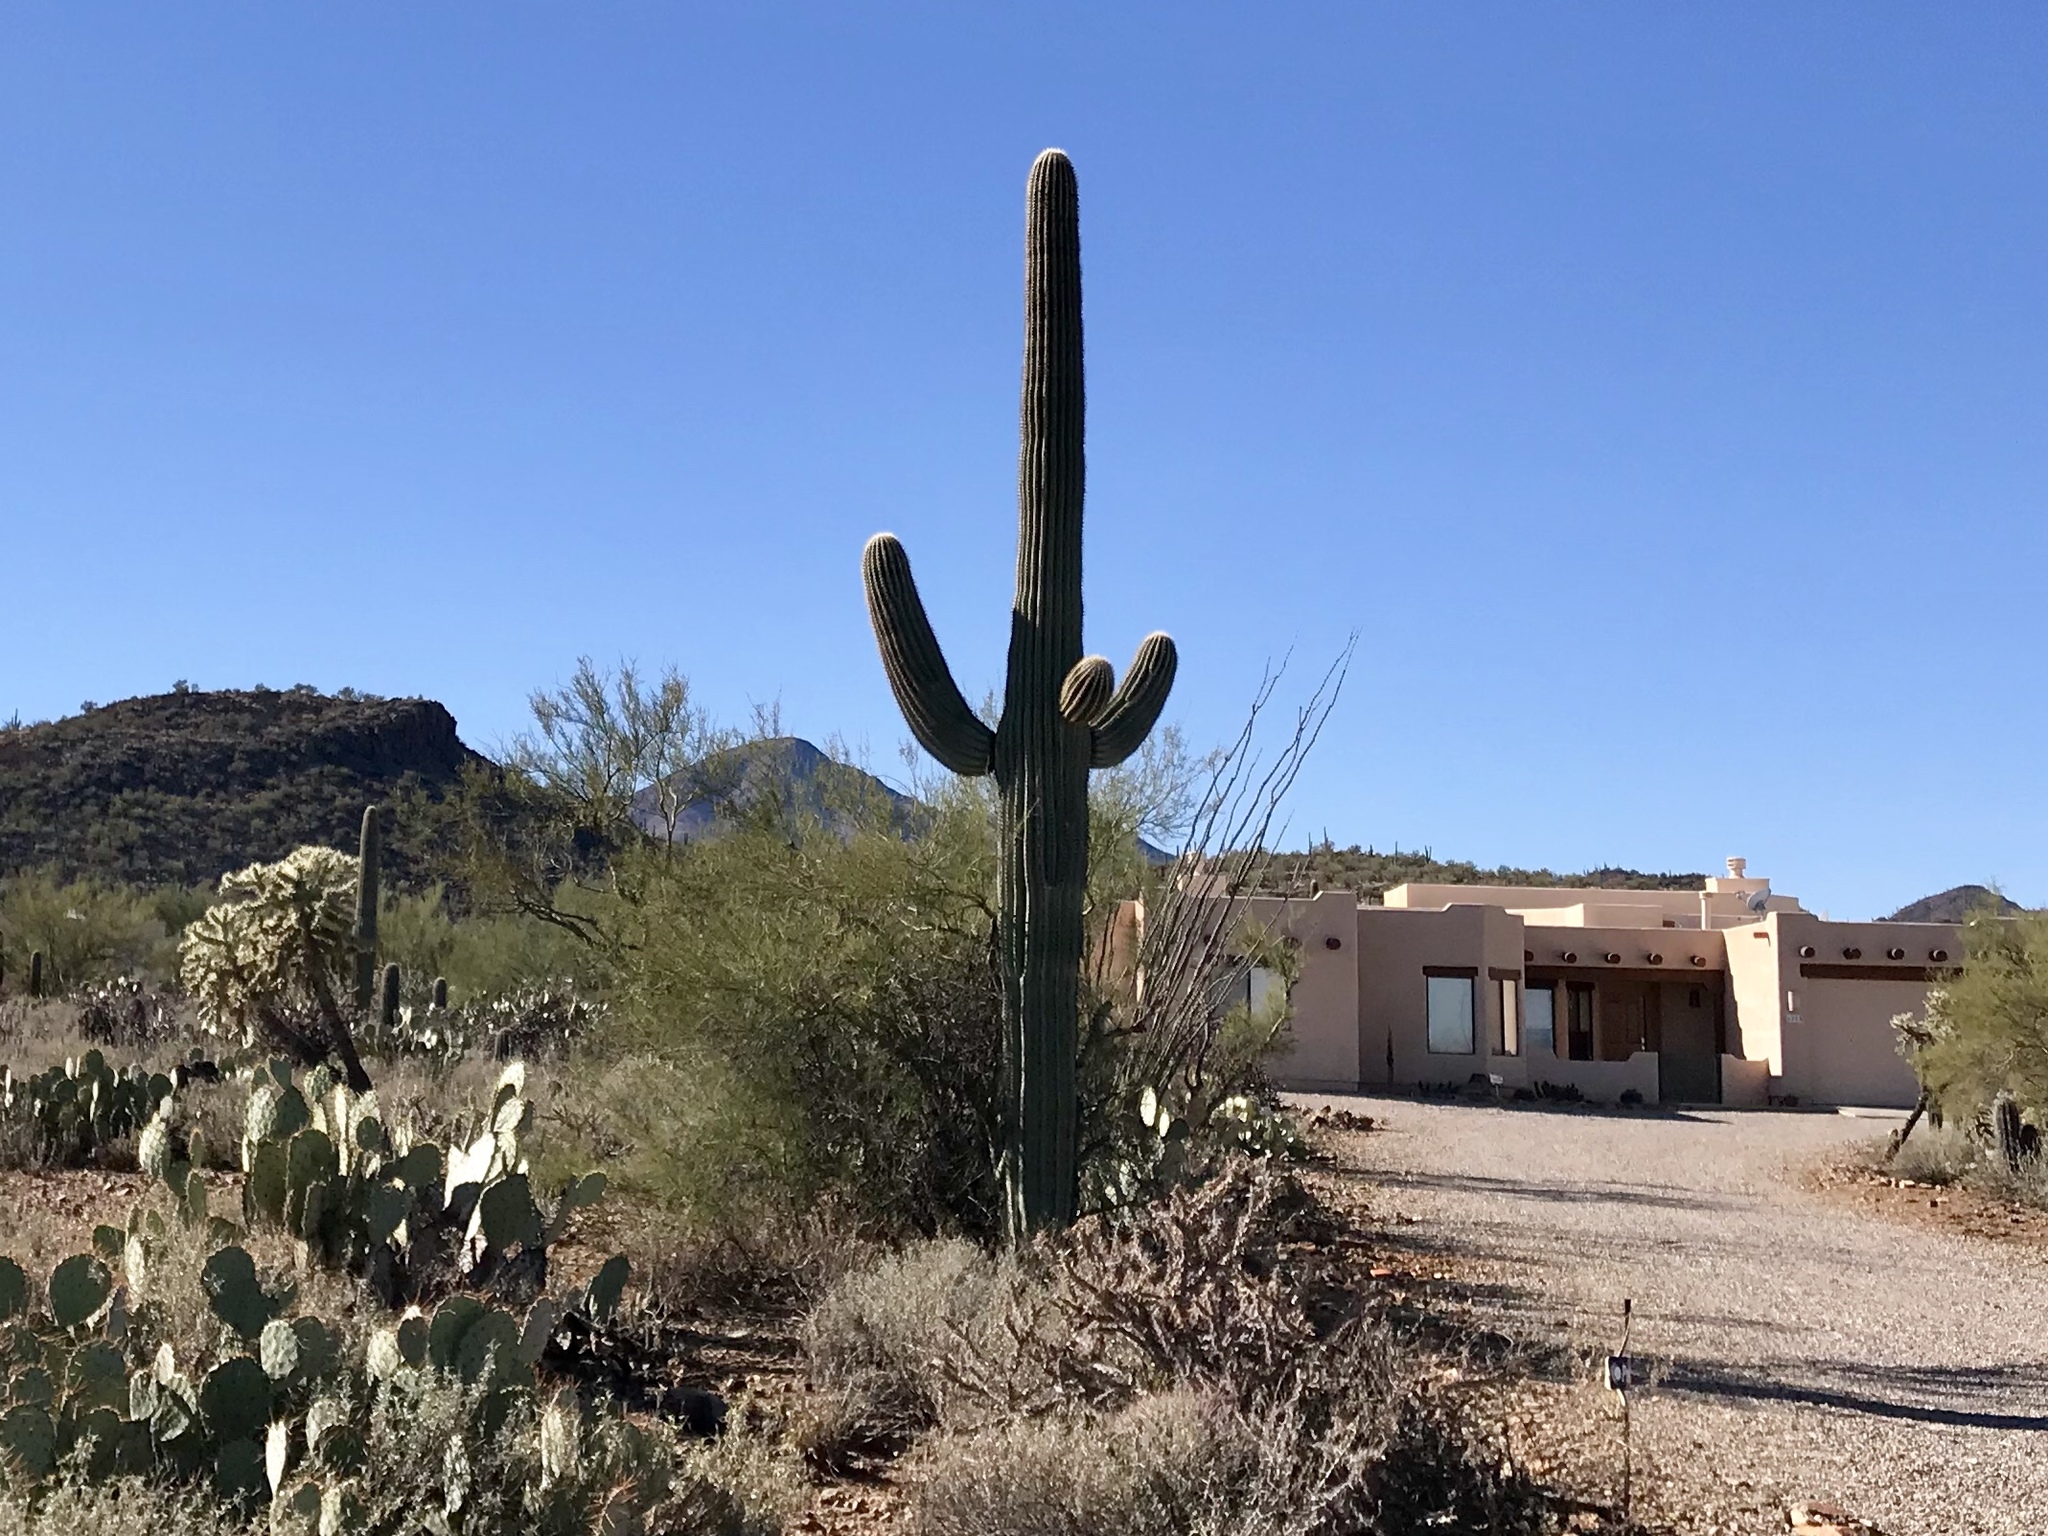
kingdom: Plantae
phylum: Tracheophyta
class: Magnoliopsida
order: Caryophyllales
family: Cactaceae
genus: Carnegiea
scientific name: Carnegiea gigantea
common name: Saguaro
